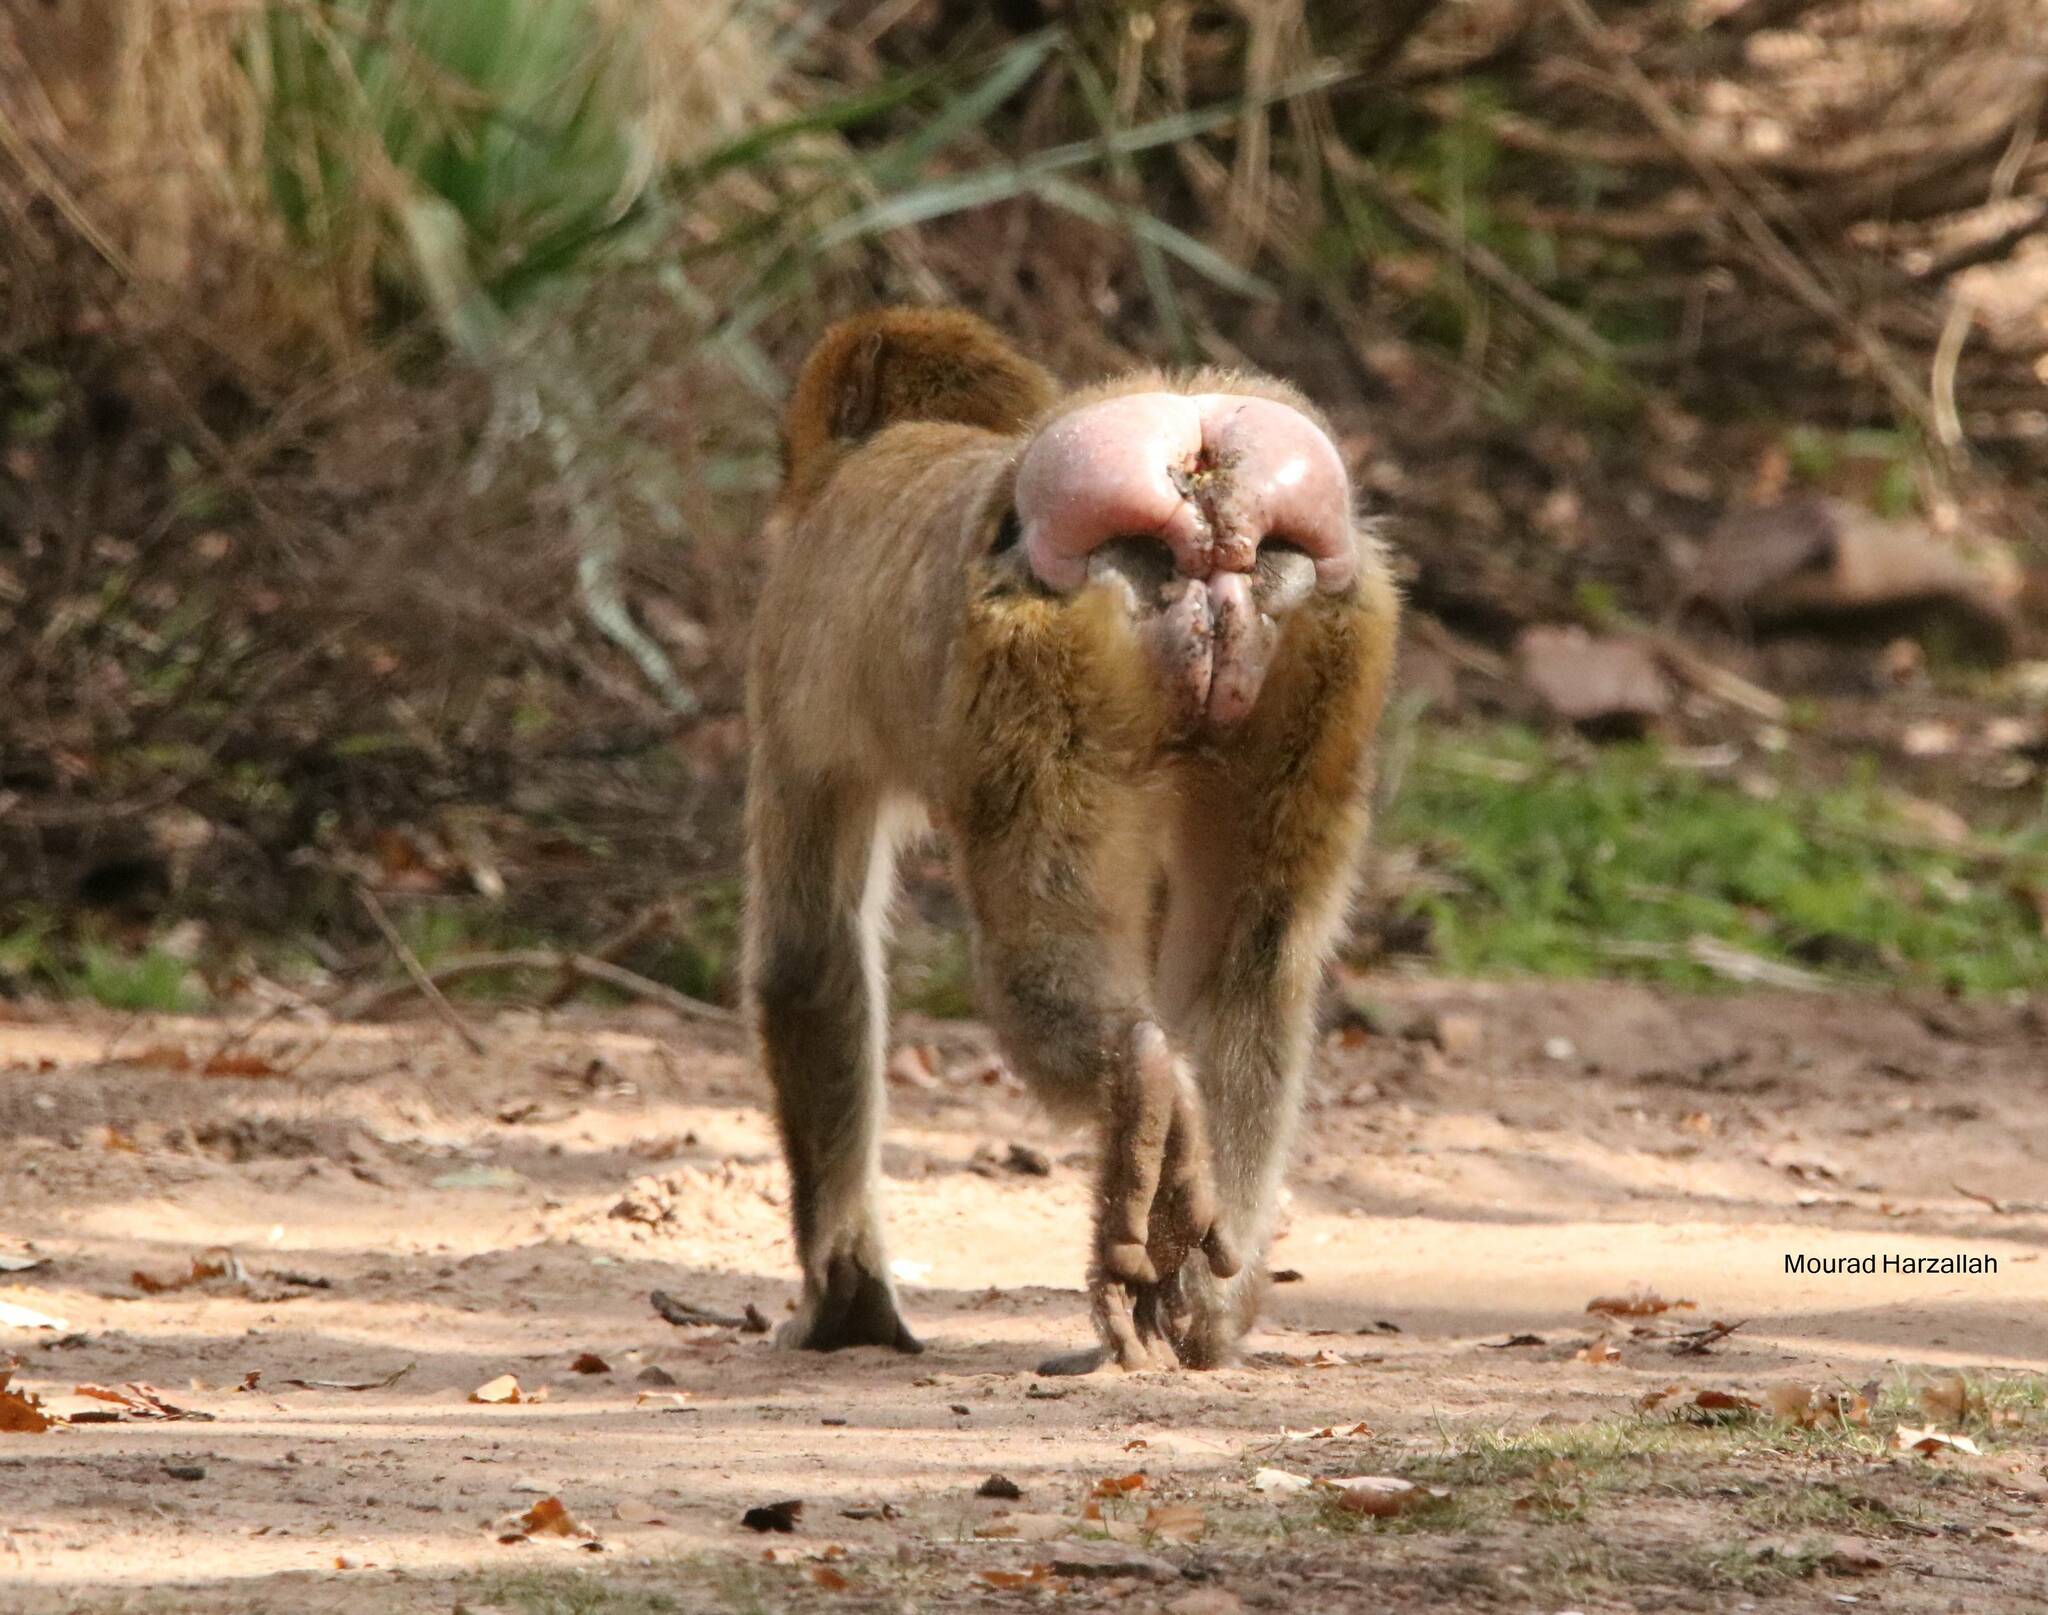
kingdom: Animalia
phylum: Chordata
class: Mammalia
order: Primates
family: Cercopithecidae
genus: Macaca
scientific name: Macaca sylvanus
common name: Barbary macaque
